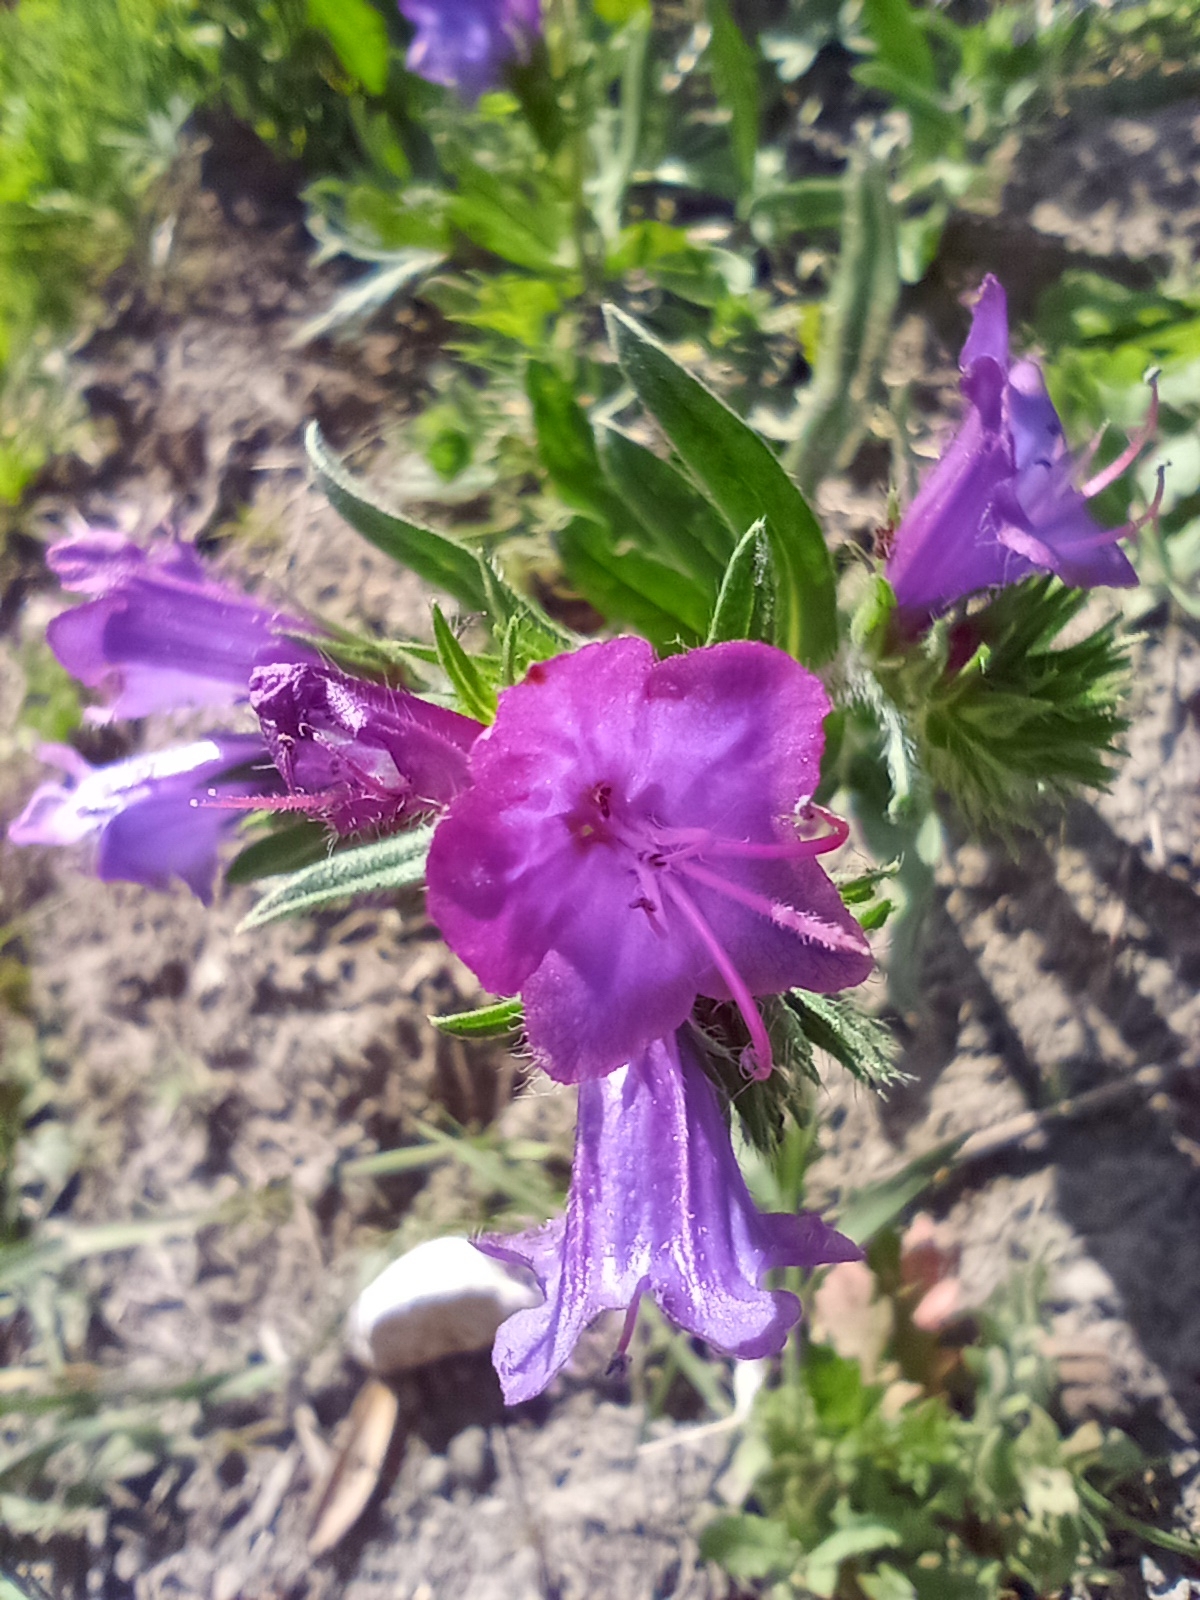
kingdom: Plantae
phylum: Tracheophyta
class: Magnoliopsida
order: Boraginales
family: Boraginaceae
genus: Echium
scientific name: Echium plantagineum
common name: Purple viper's-bugloss
